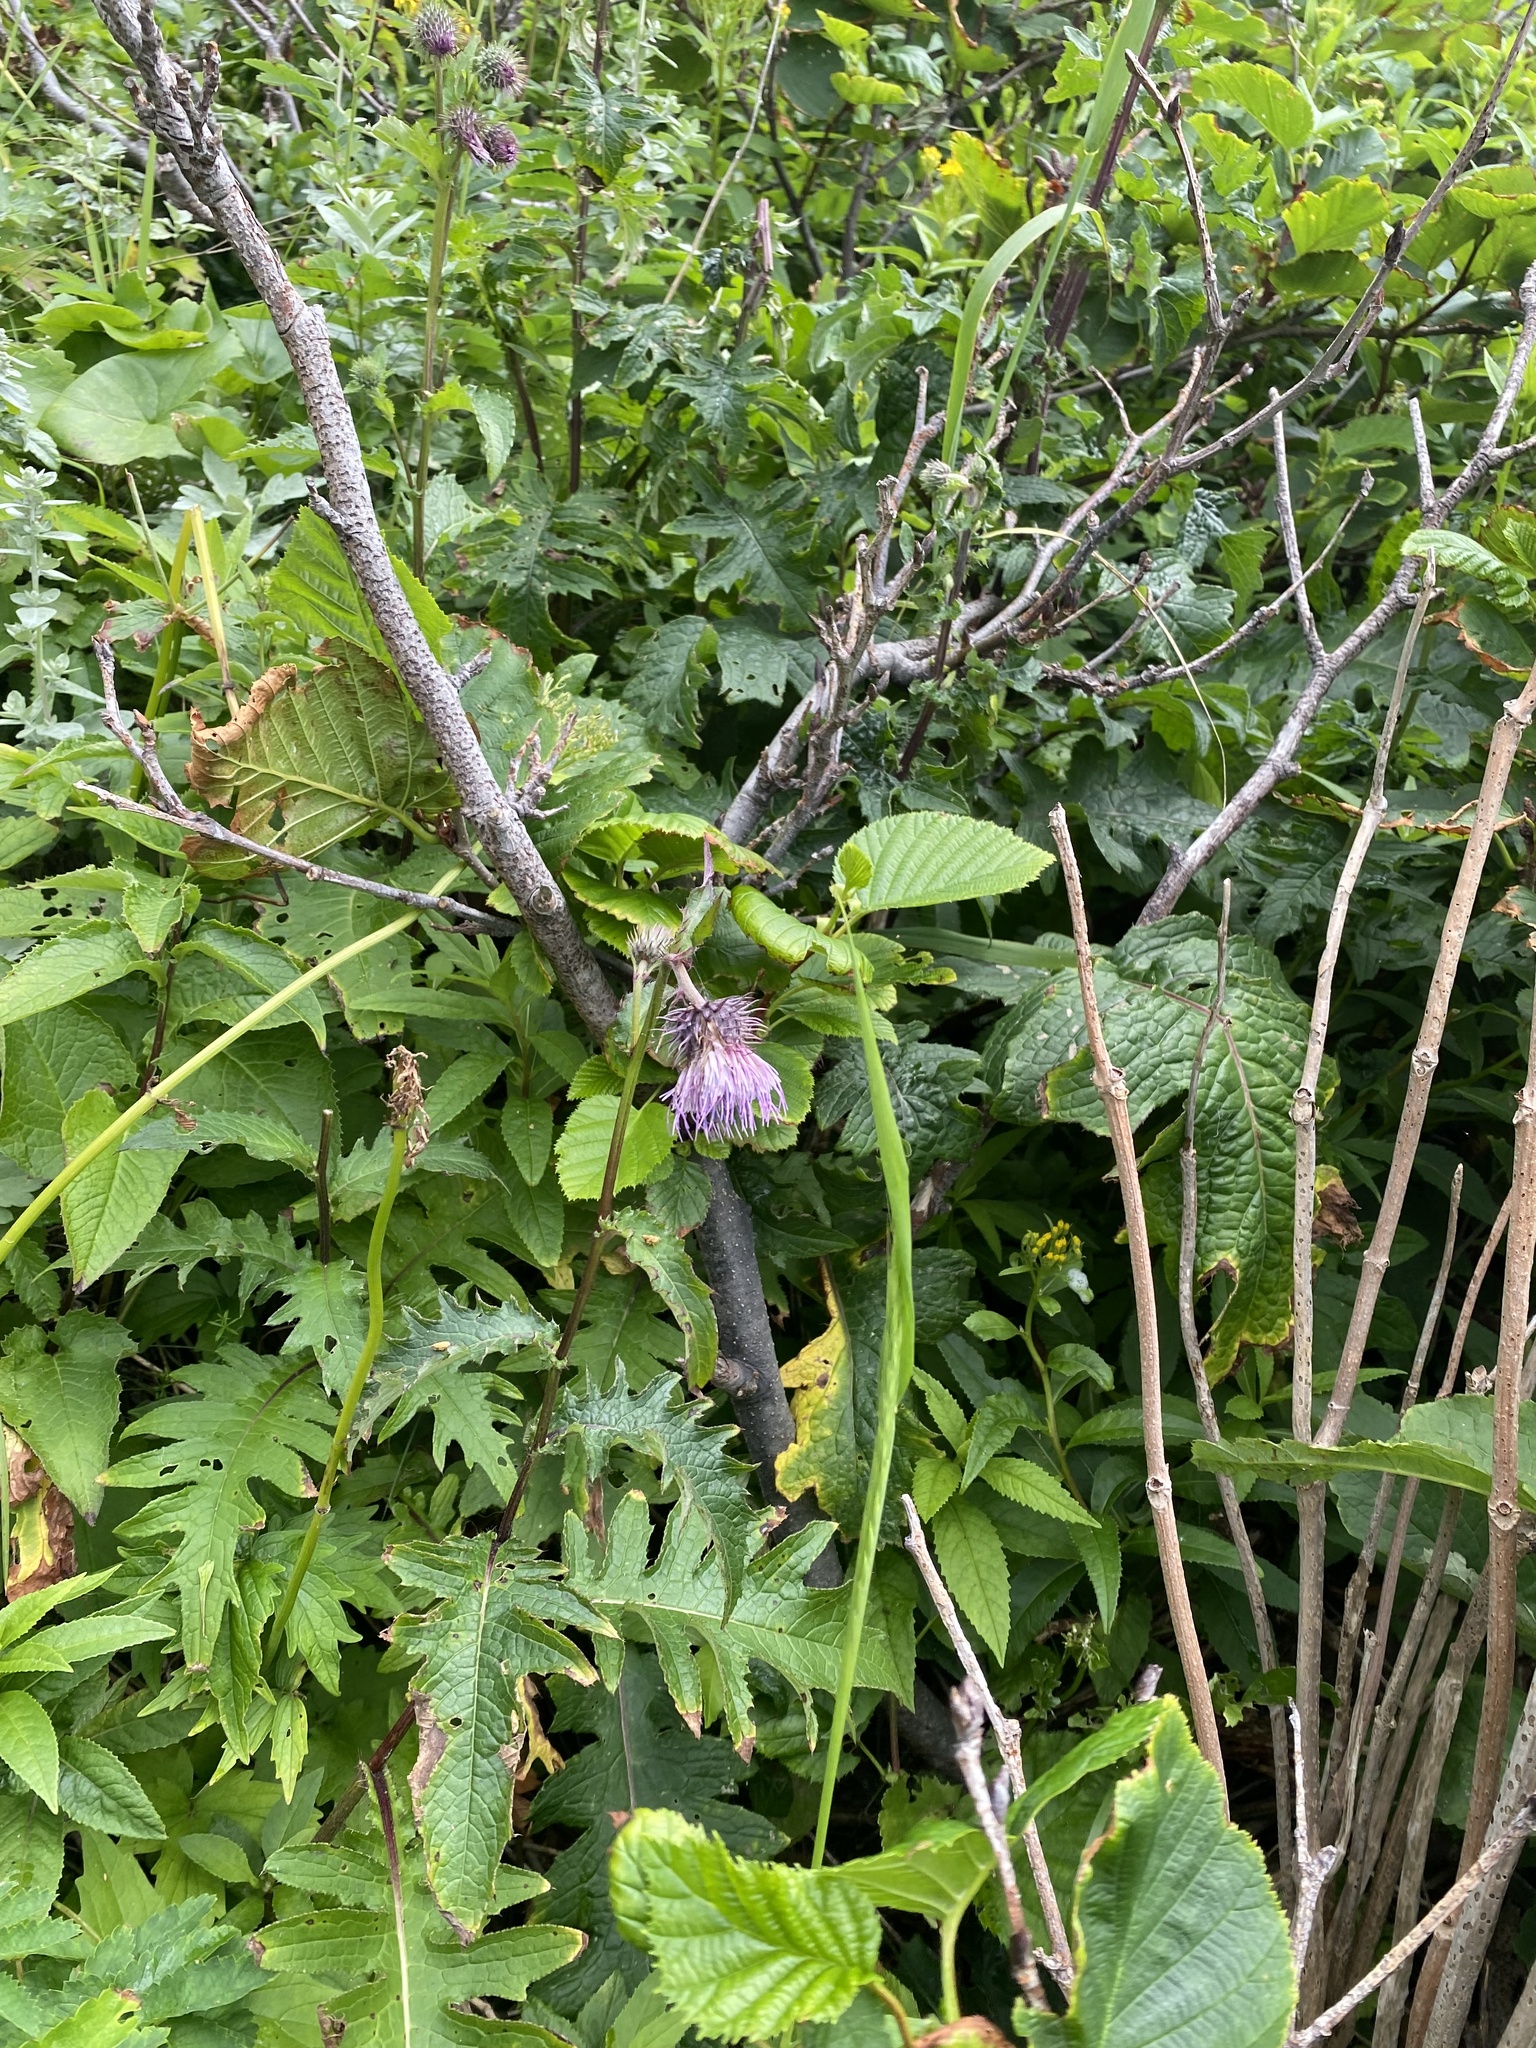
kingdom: Plantae
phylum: Tracheophyta
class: Magnoliopsida
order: Asterales
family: Asteraceae
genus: Cirsium
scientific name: Cirsium kamtschaticum
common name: Kamchatka thistle
